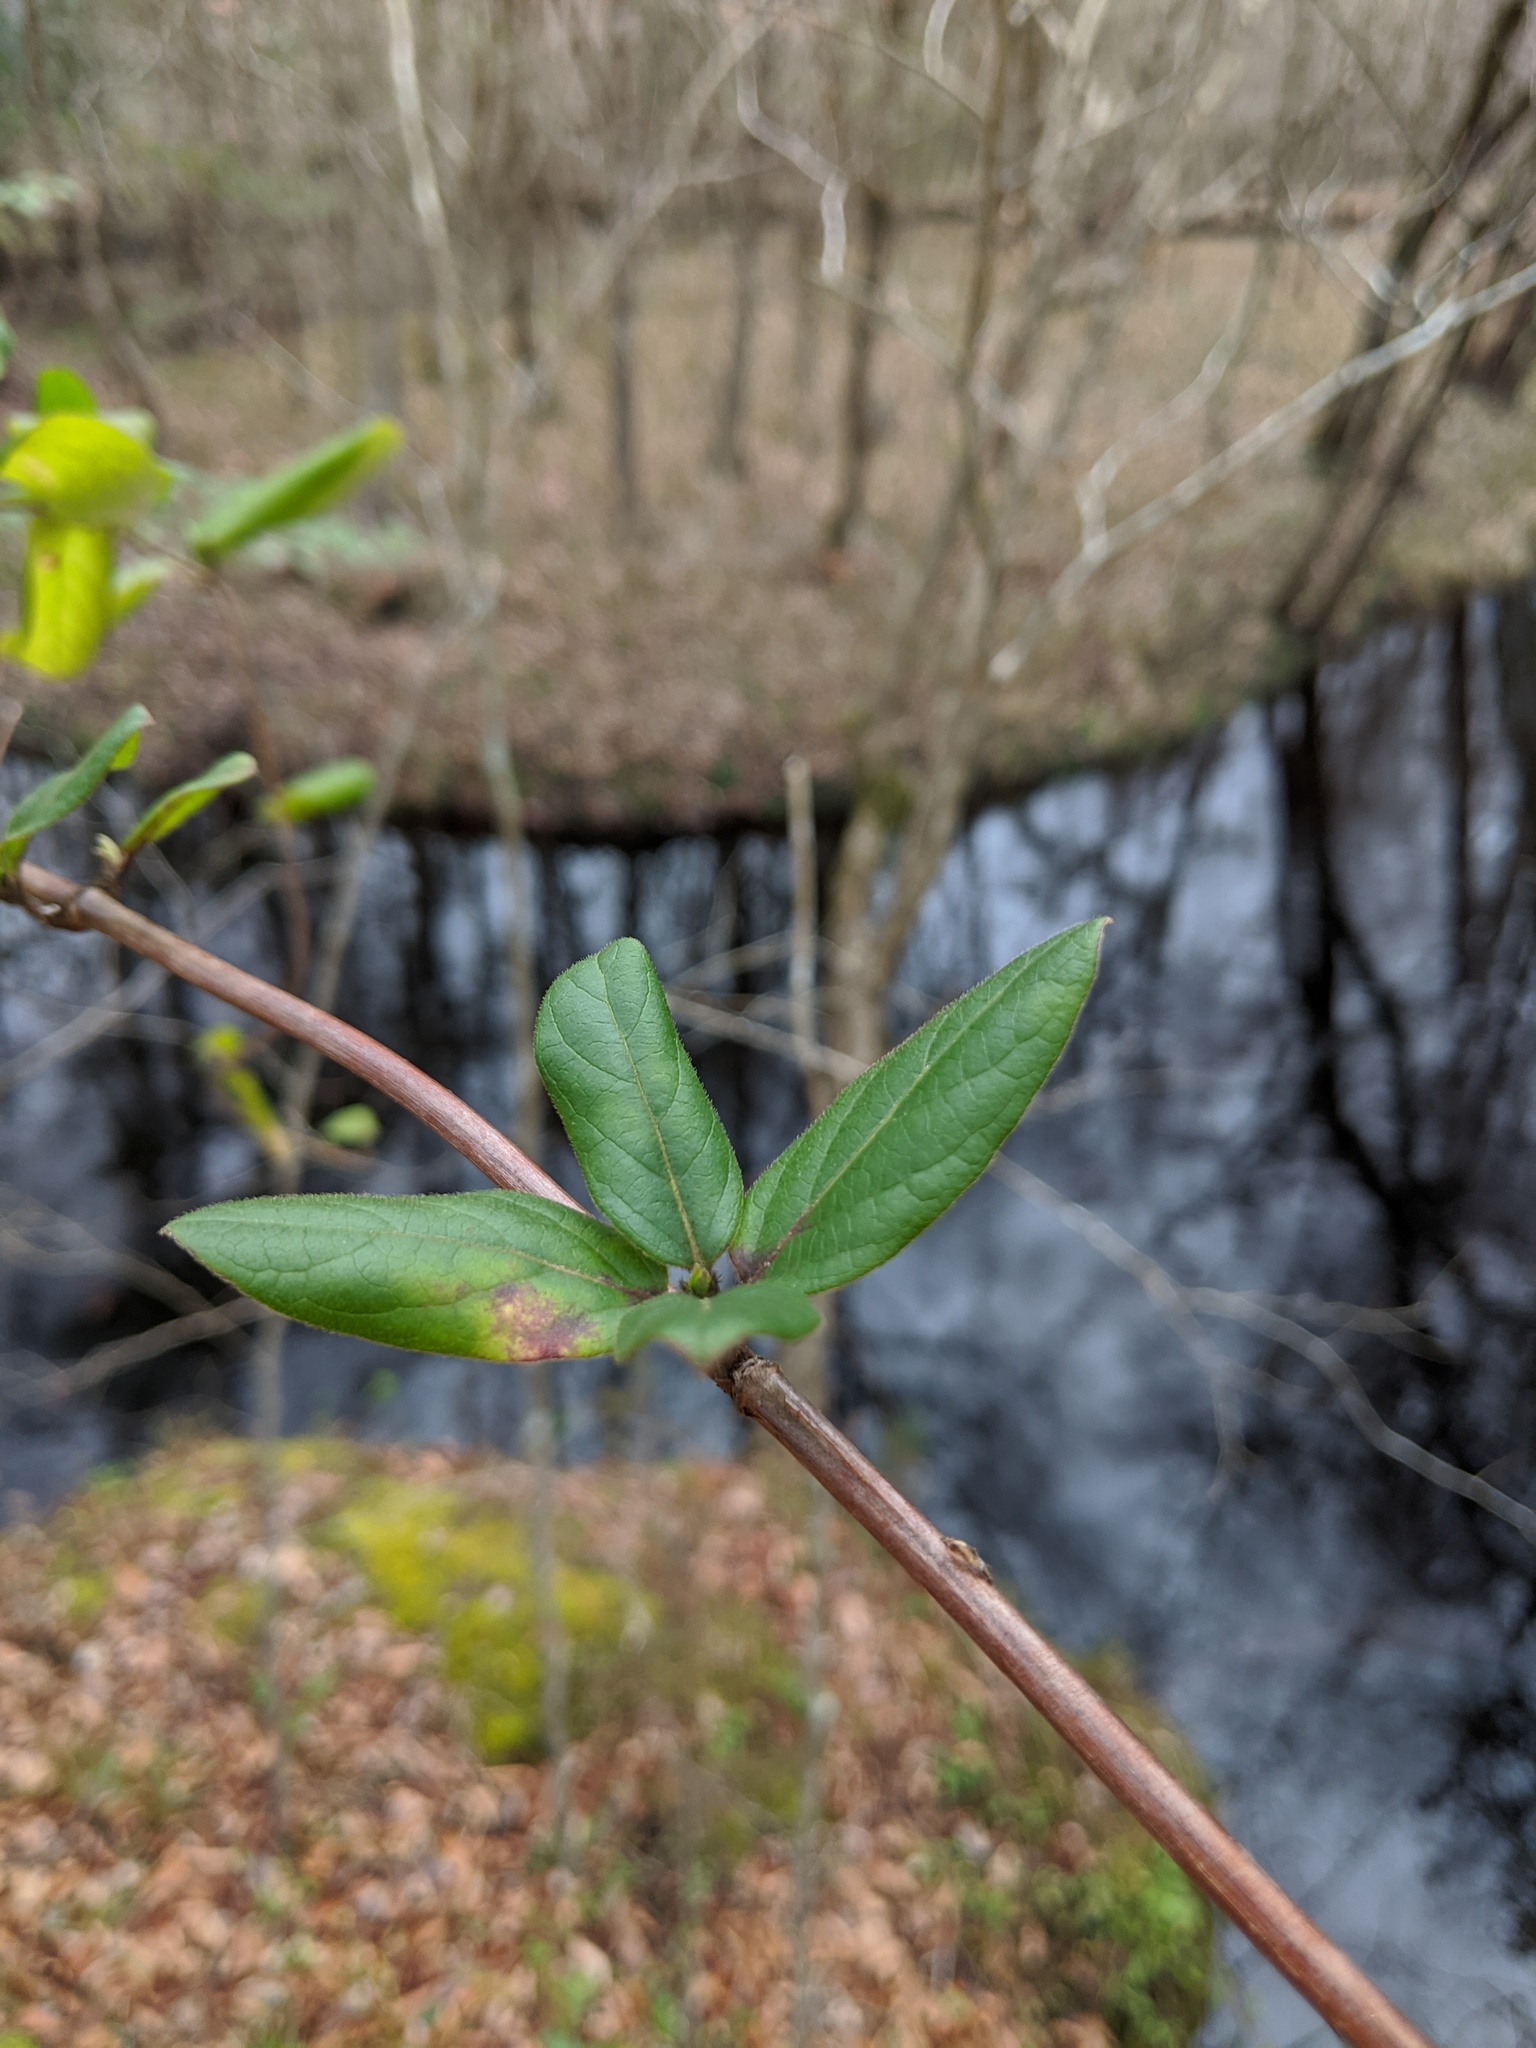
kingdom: Plantae
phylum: Tracheophyta
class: Magnoliopsida
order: Dipsacales
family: Caprifoliaceae
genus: Lonicera
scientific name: Lonicera japonica
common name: Japanese honeysuckle
